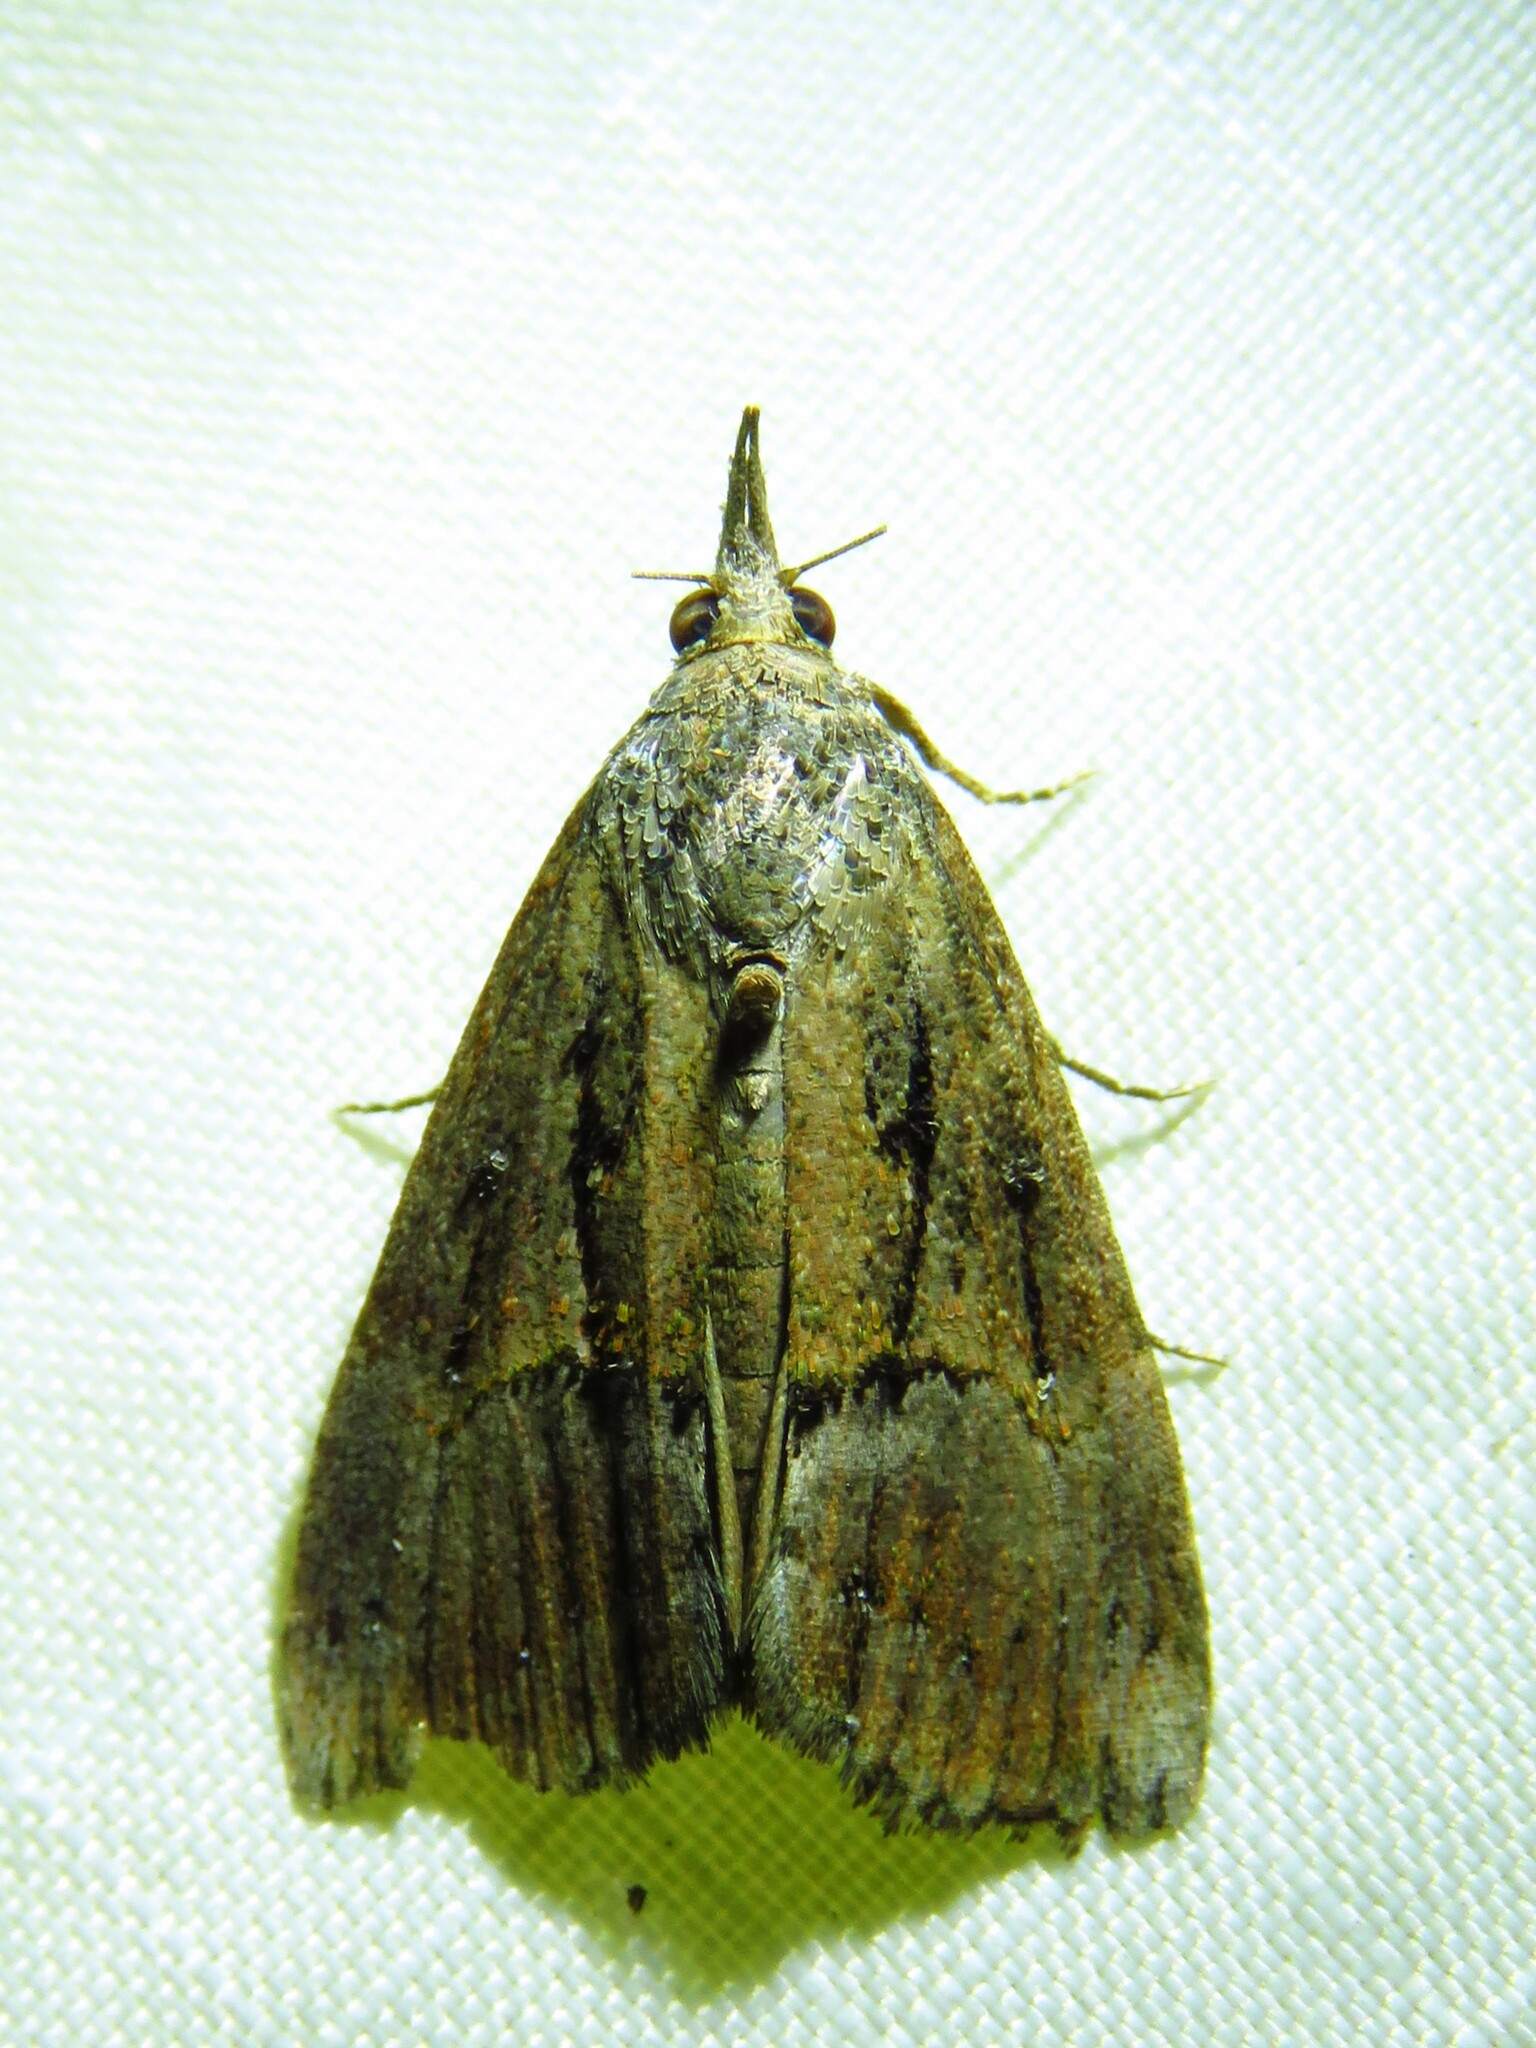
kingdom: Animalia
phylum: Arthropoda
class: Insecta
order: Lepidoptera
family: Erebidae
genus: Hypena
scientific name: Hypena scabra
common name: Green cloverworm
